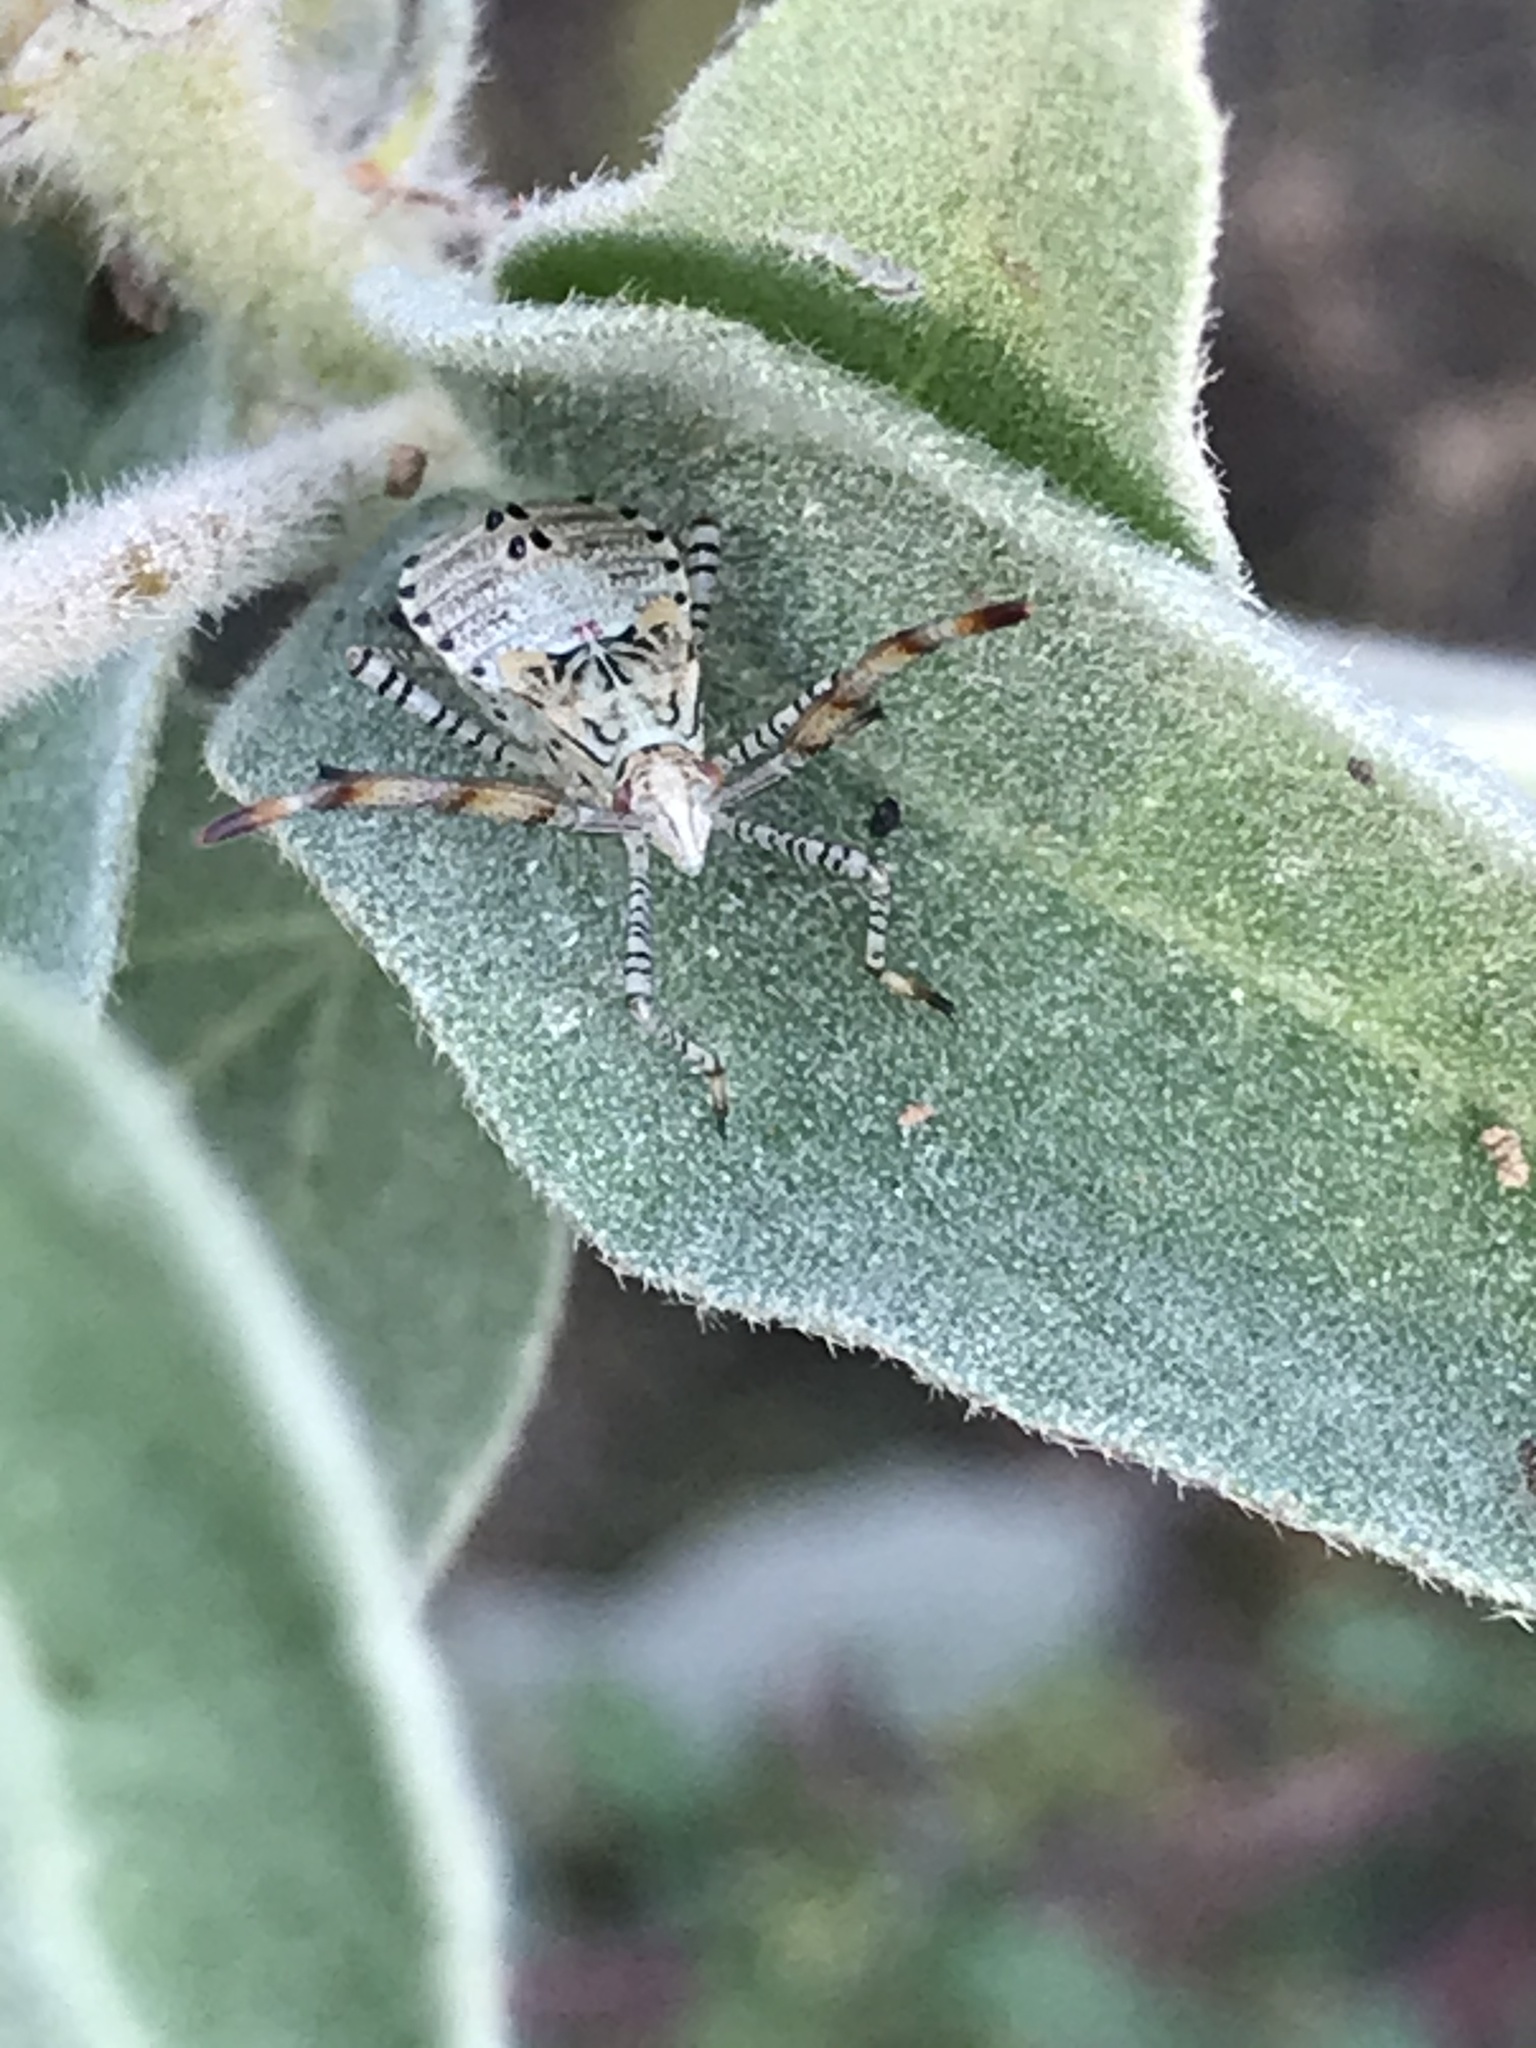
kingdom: Animalia
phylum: Arthropoda
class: Insecta
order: Hemiptera
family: Coreidae
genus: Hypselonotus
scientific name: Hypselonotus punctiventris
